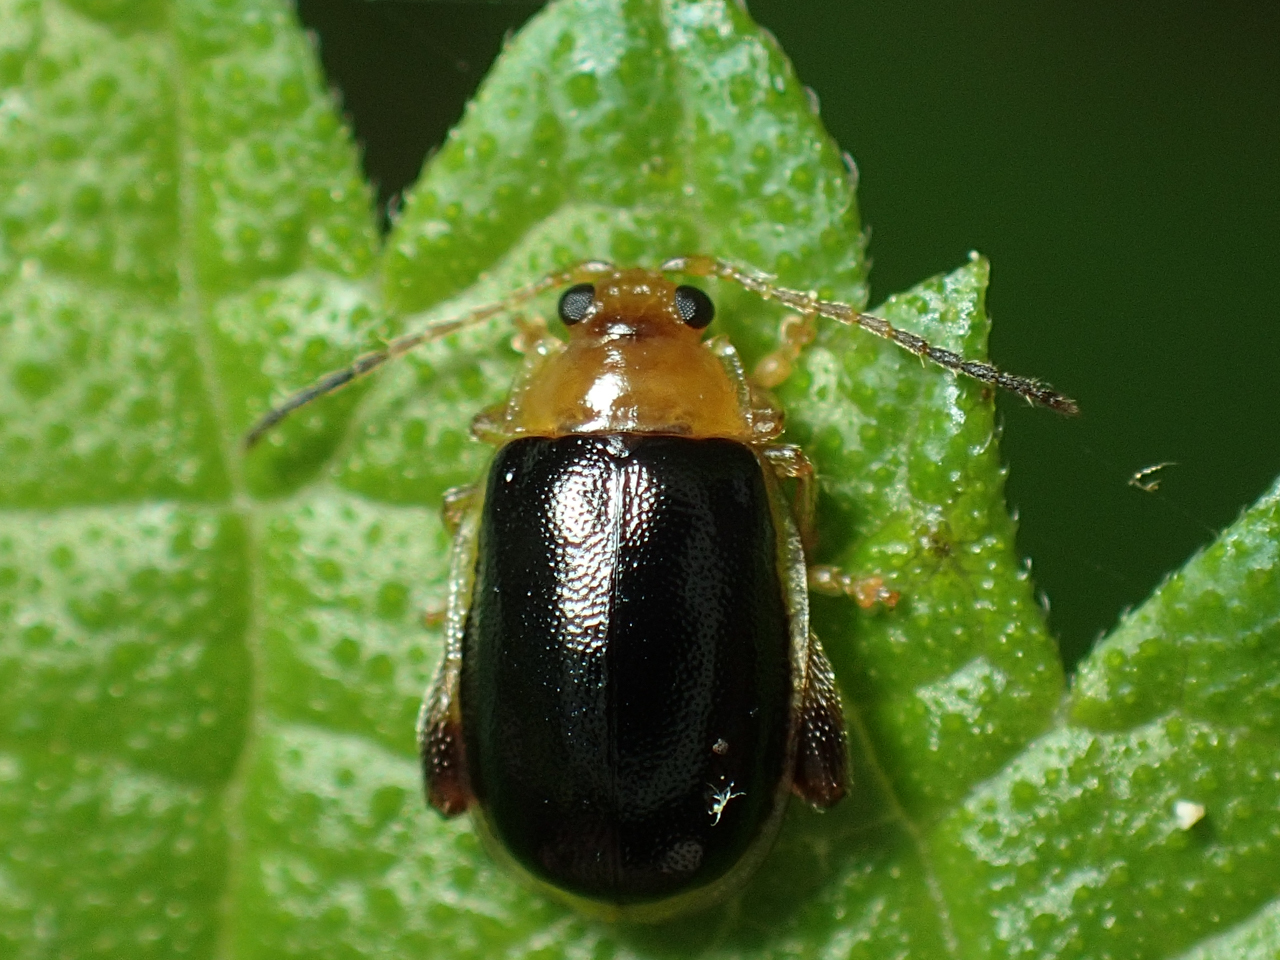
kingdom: Animalia
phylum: Arthropoda
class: Insecta
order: Coleoptera
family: Chrysomelidae
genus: Capraita
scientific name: Capraita circumdata
